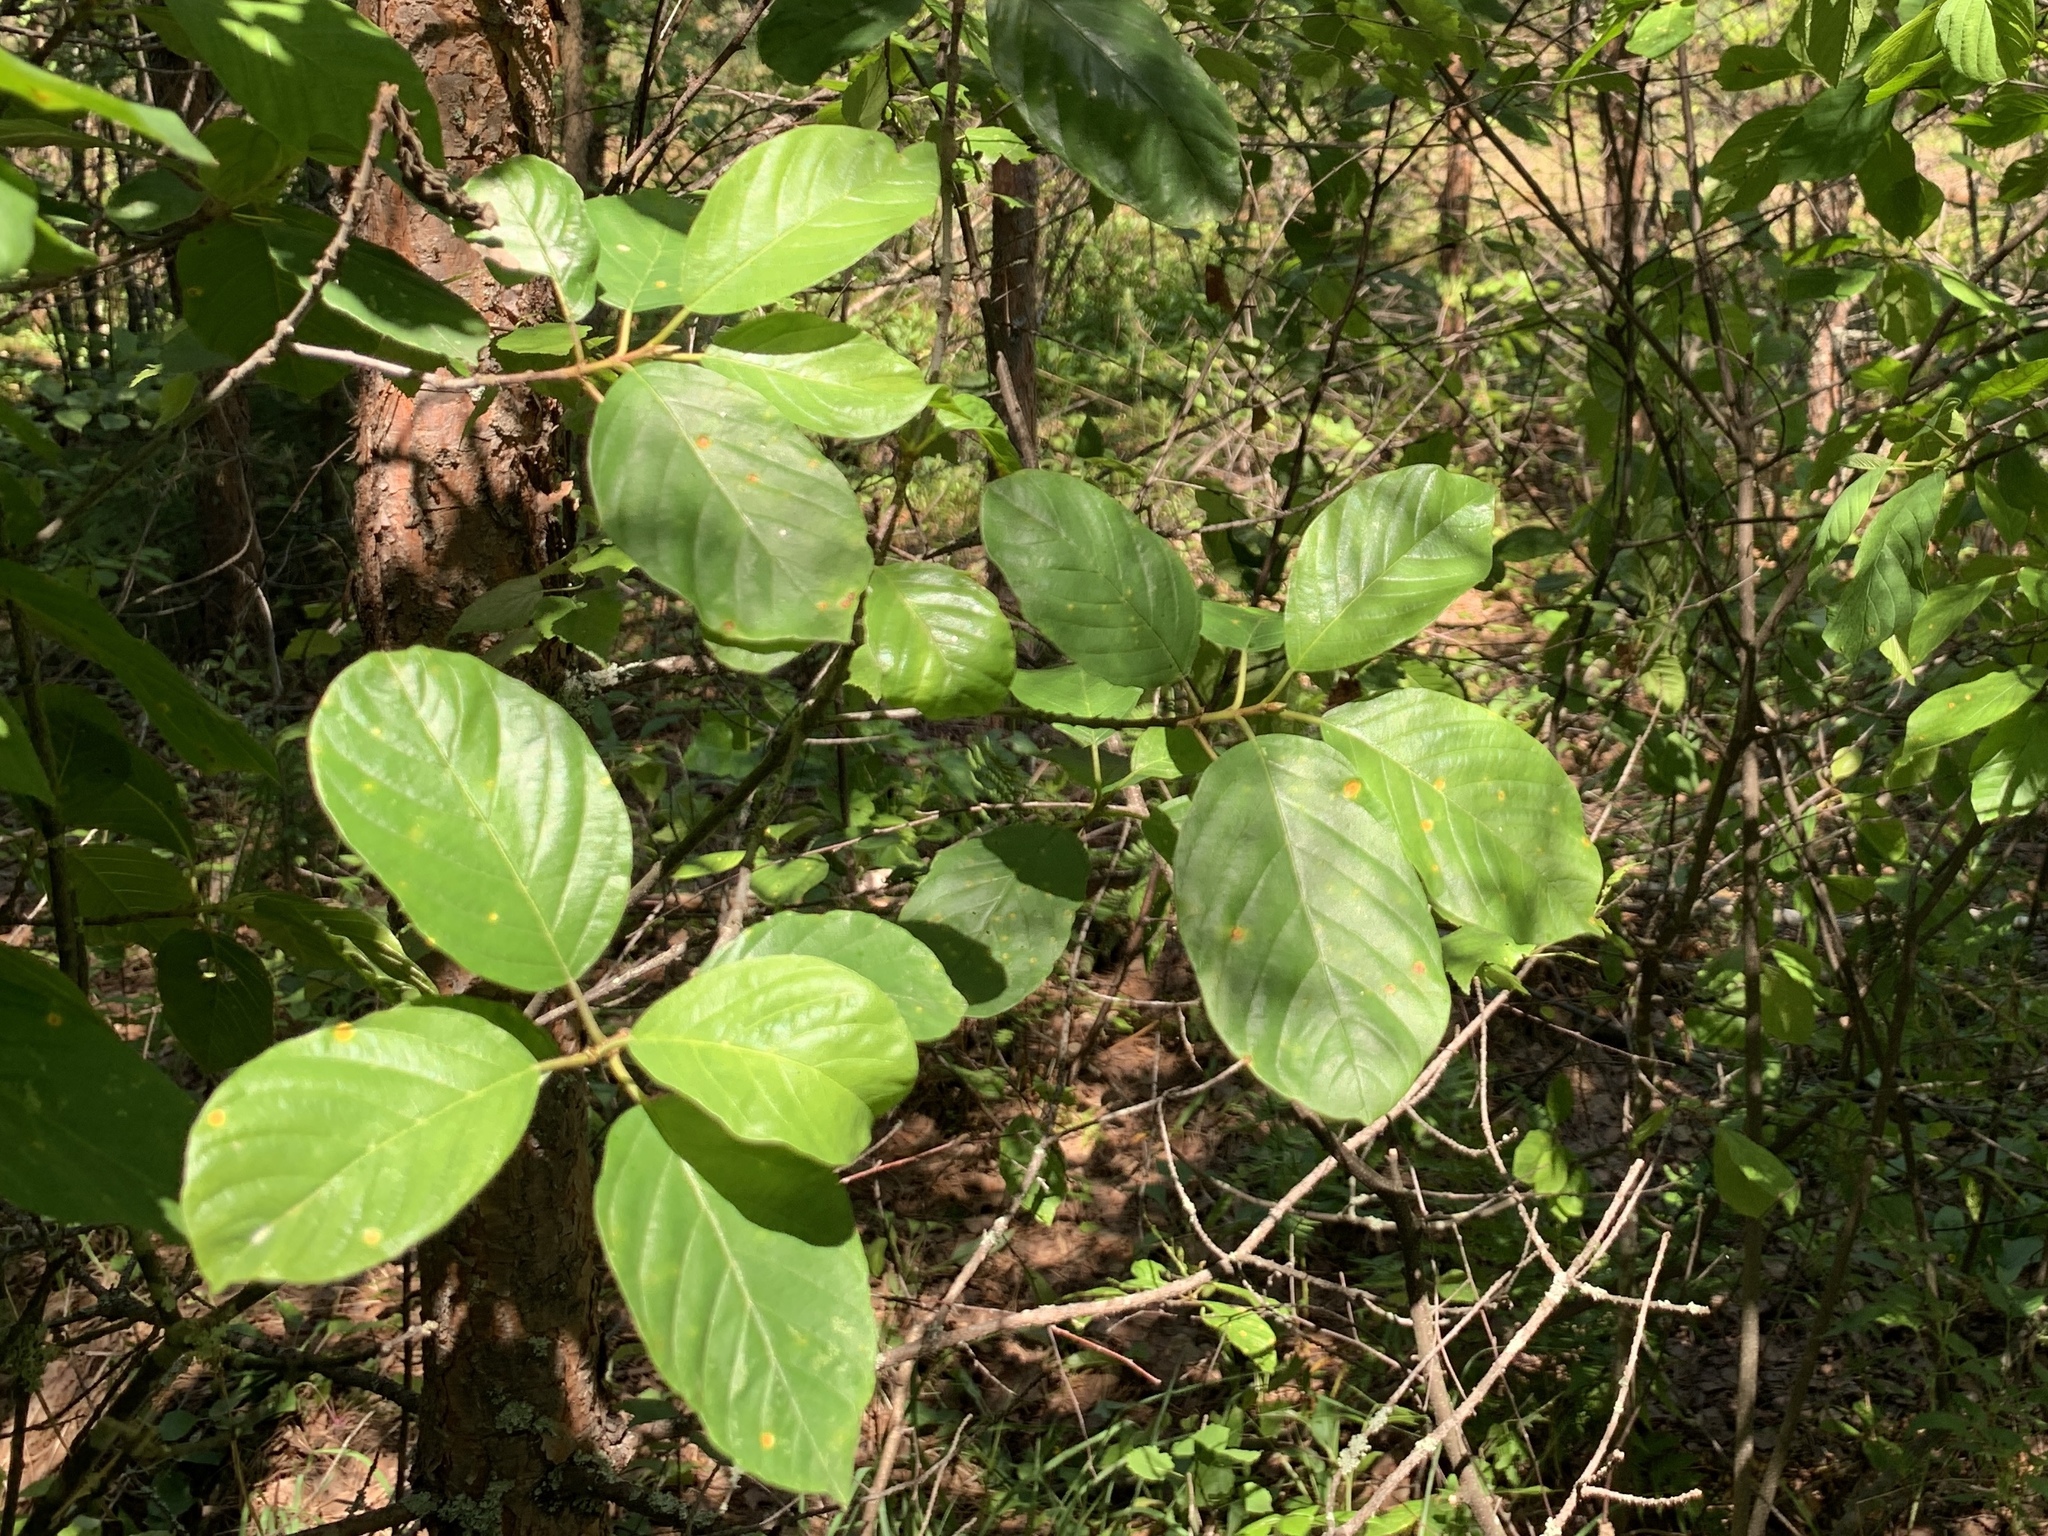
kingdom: Plantae
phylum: Tracheophyta
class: Magnoliopsida
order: Rosales
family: Rhamnaceae
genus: Frangula
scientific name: Frangula alnus
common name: Alder buckthorn
